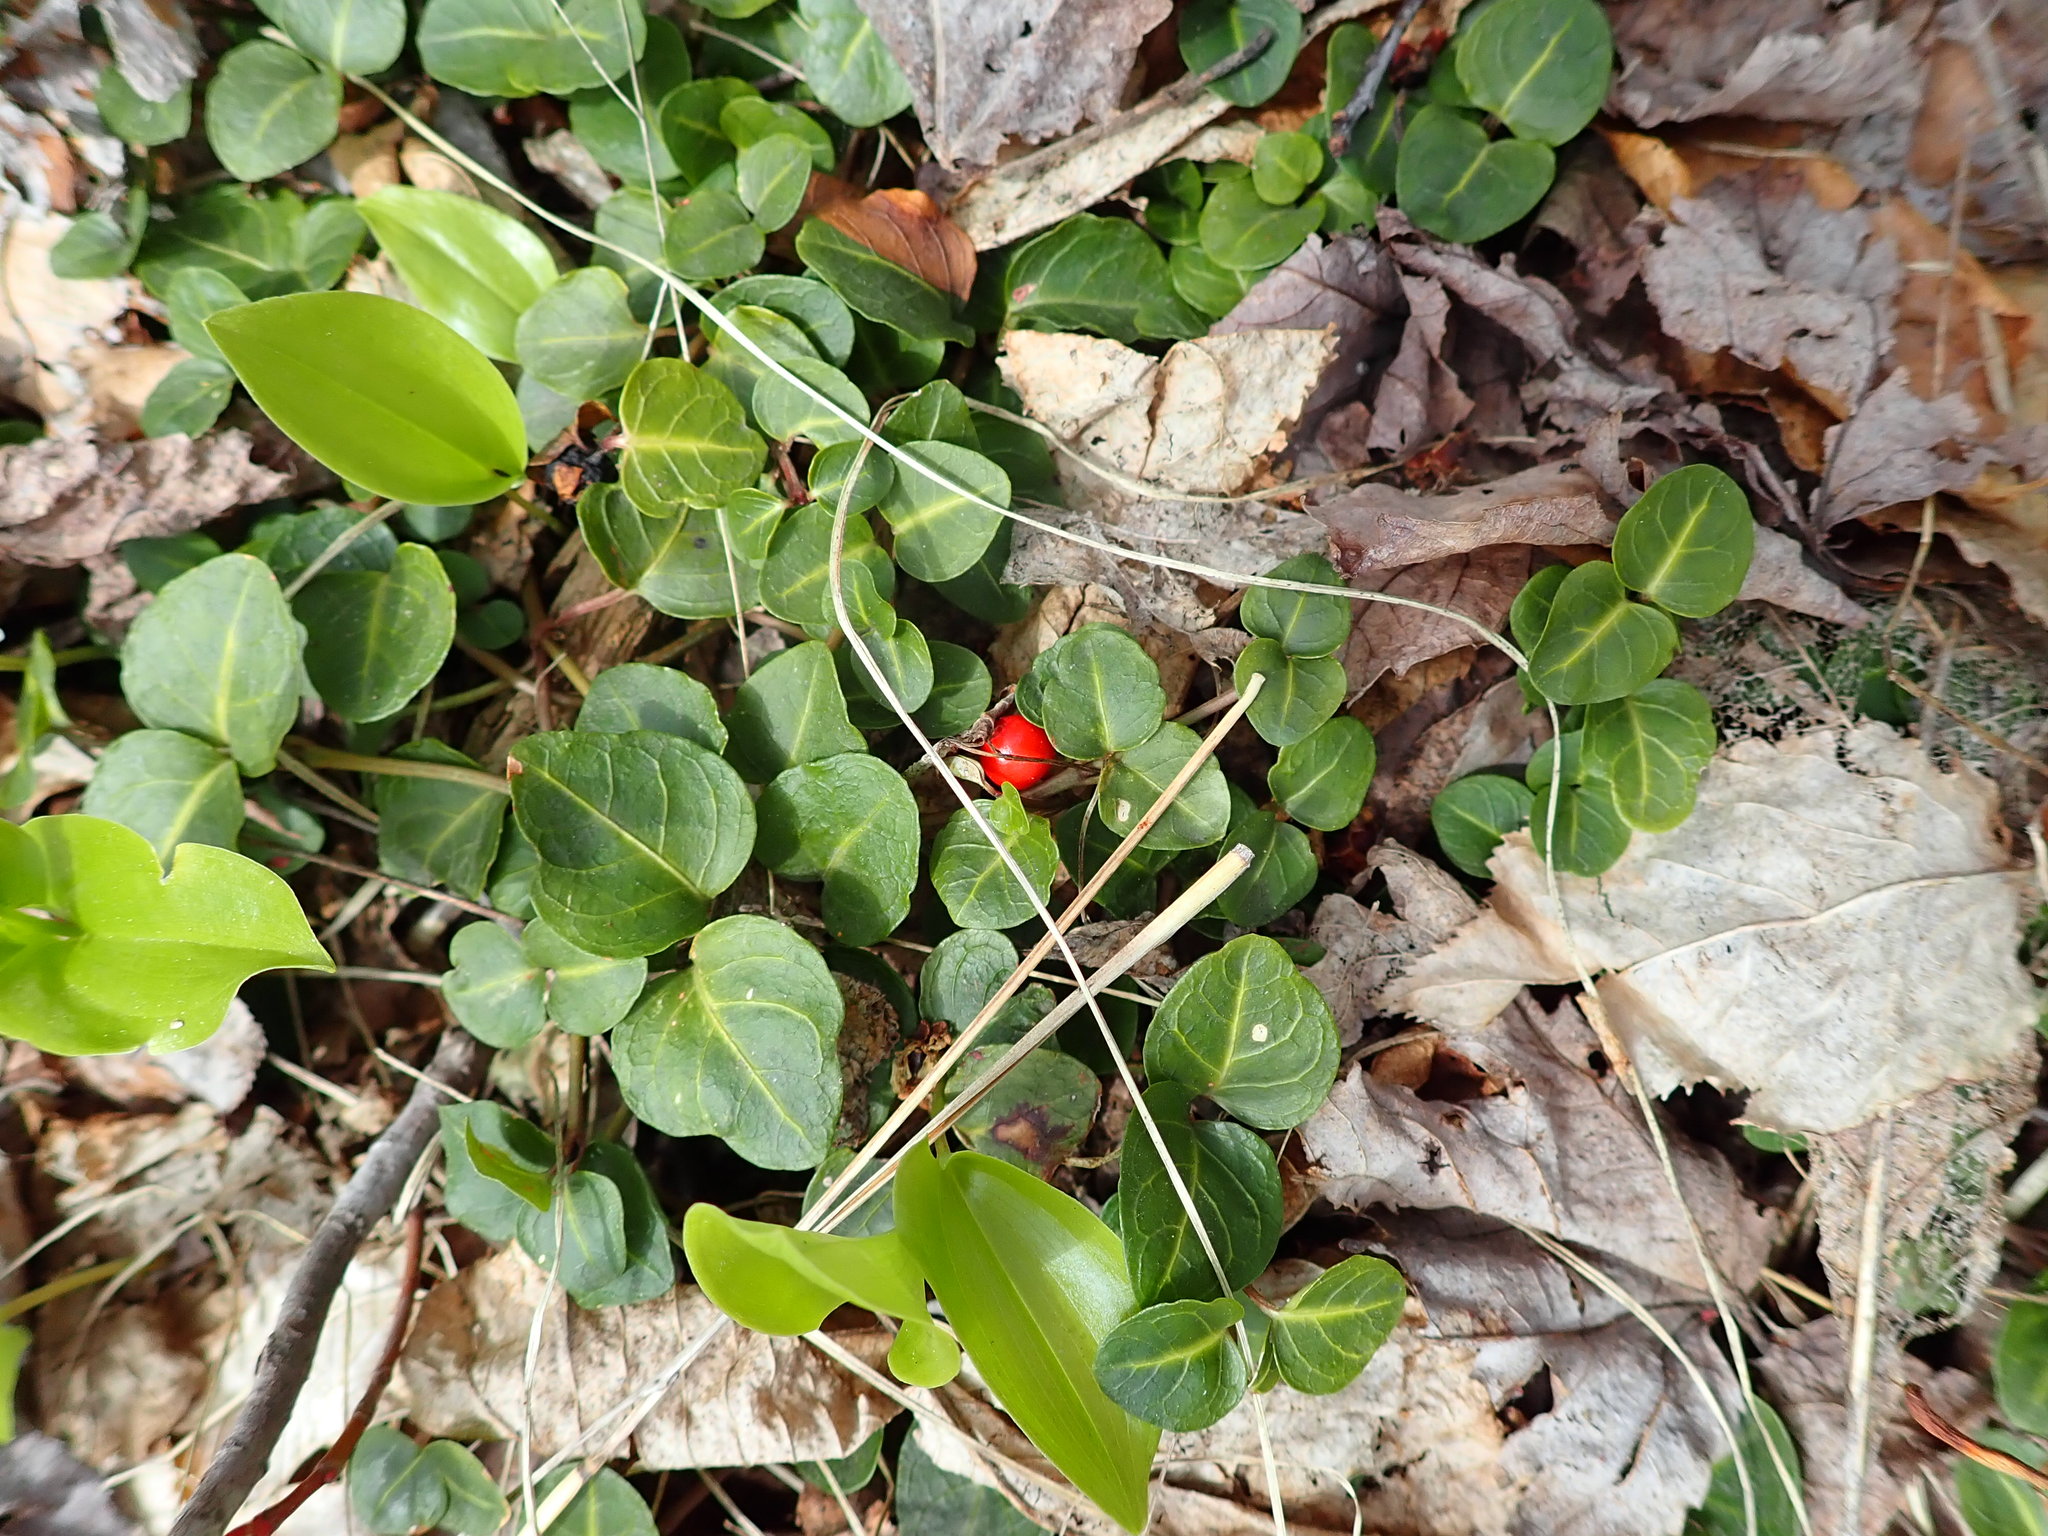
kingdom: Plantae
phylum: Tracheophyta
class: Magnoliopsida
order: Gentianales
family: Rubiaceae
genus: Mitchella
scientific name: Mitchella repens
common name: Partridge-berry
